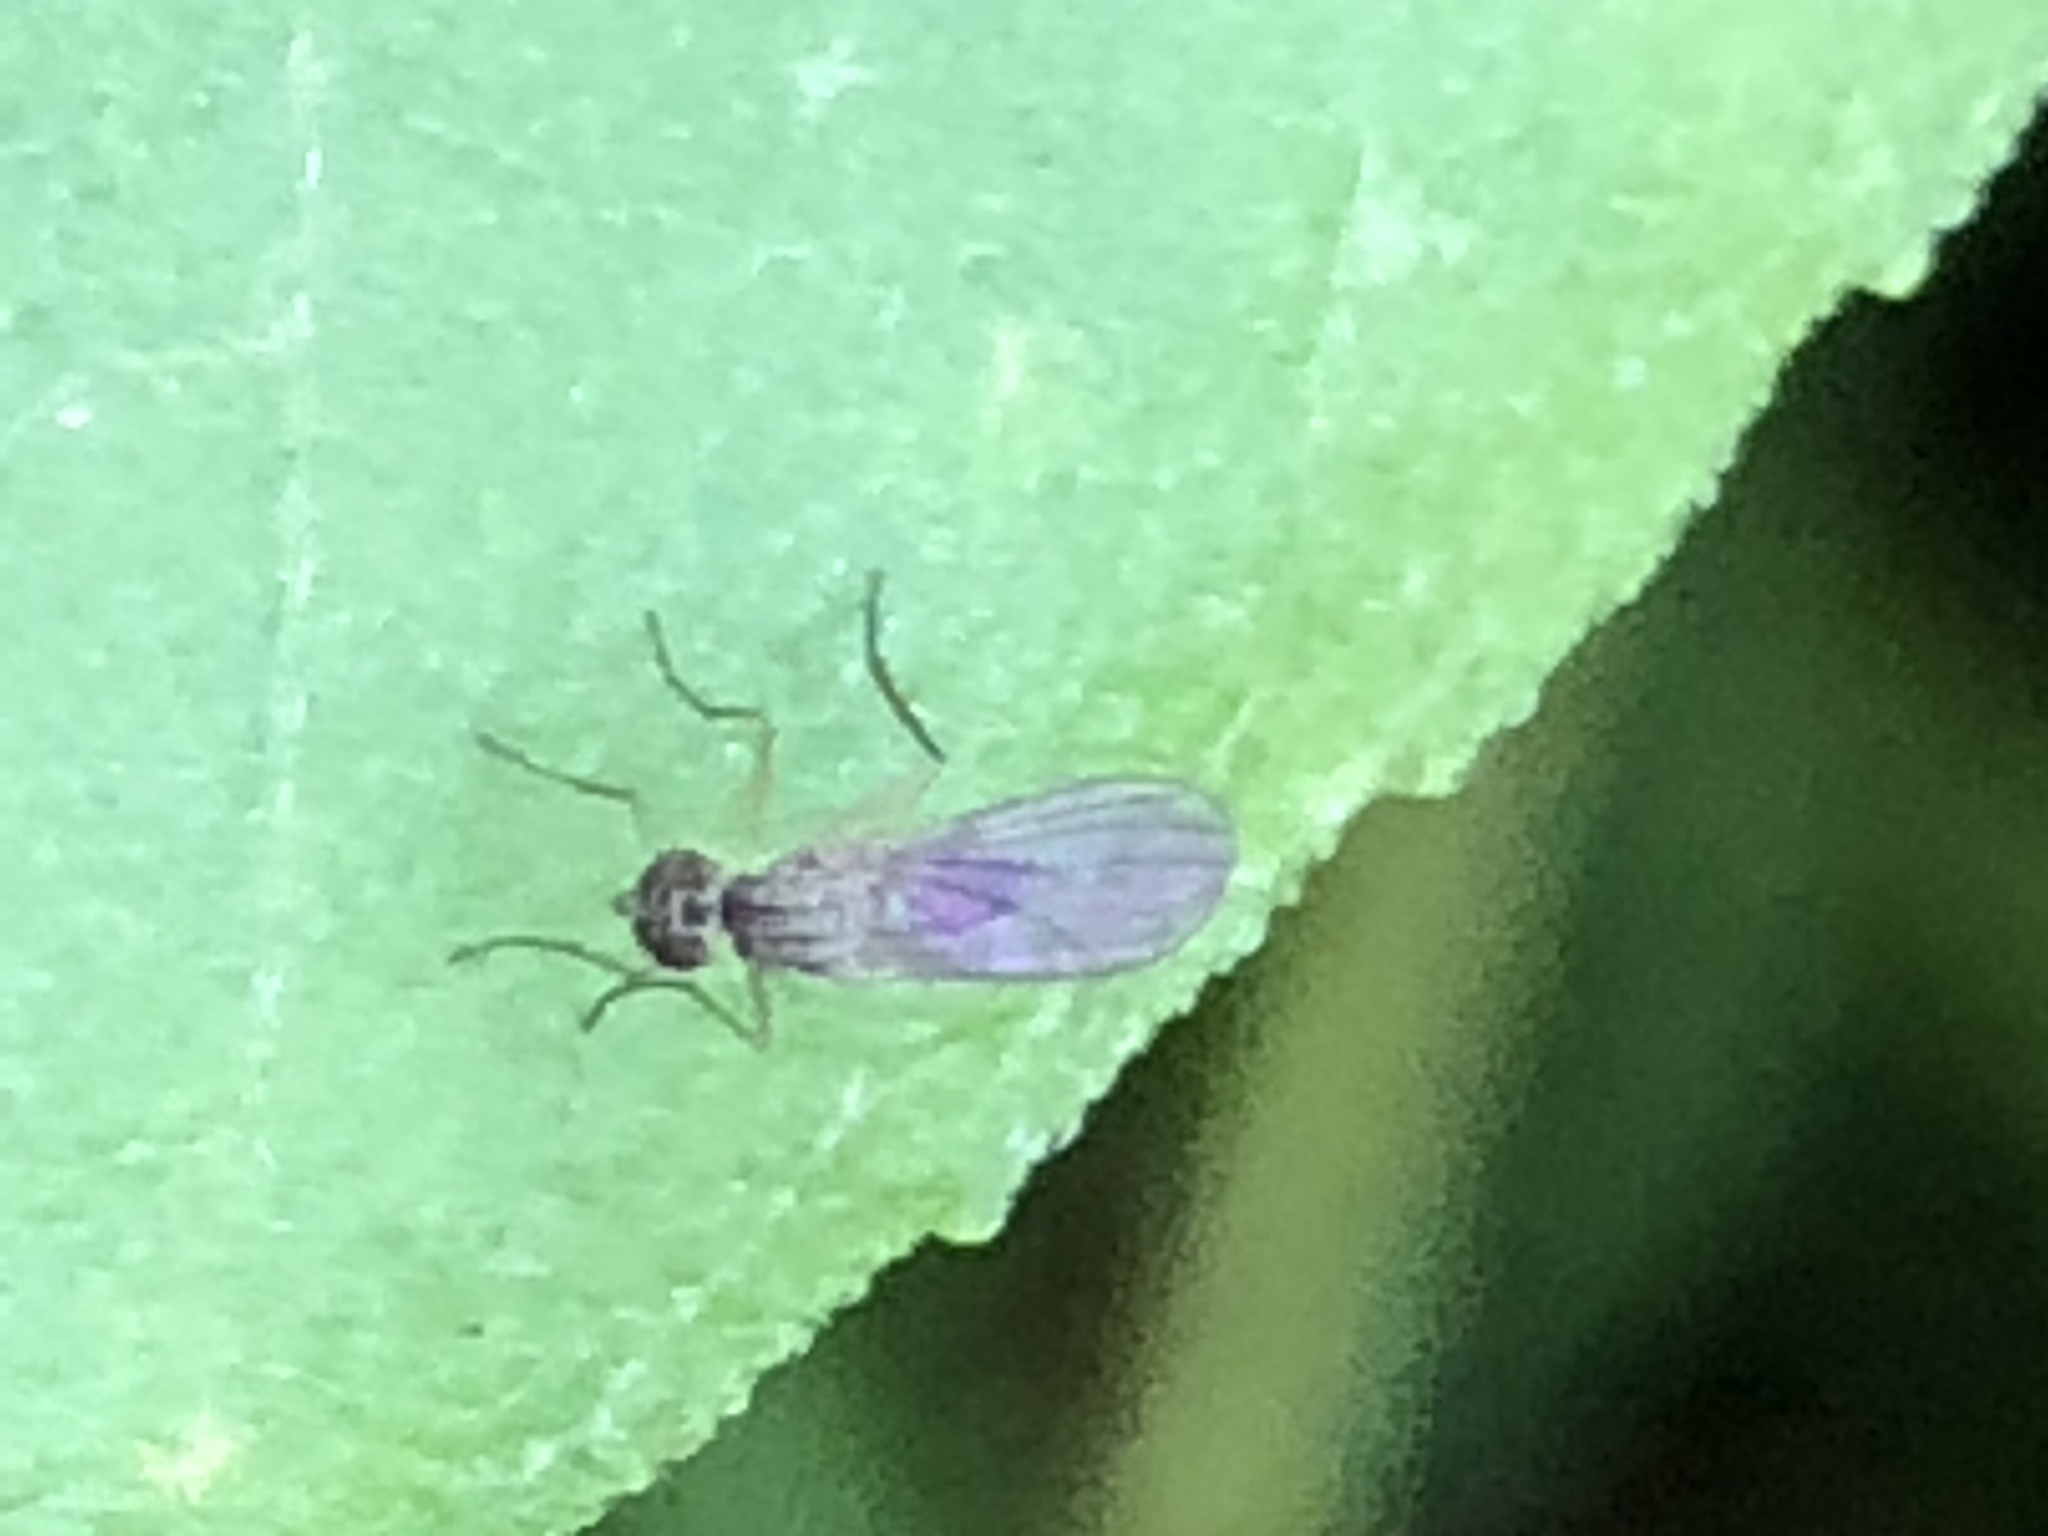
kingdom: Animalia
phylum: Arthropoda
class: Insecta
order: Diptera
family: Dolichopodidae
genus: Sympycnus
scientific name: Sympycnus lineatus
